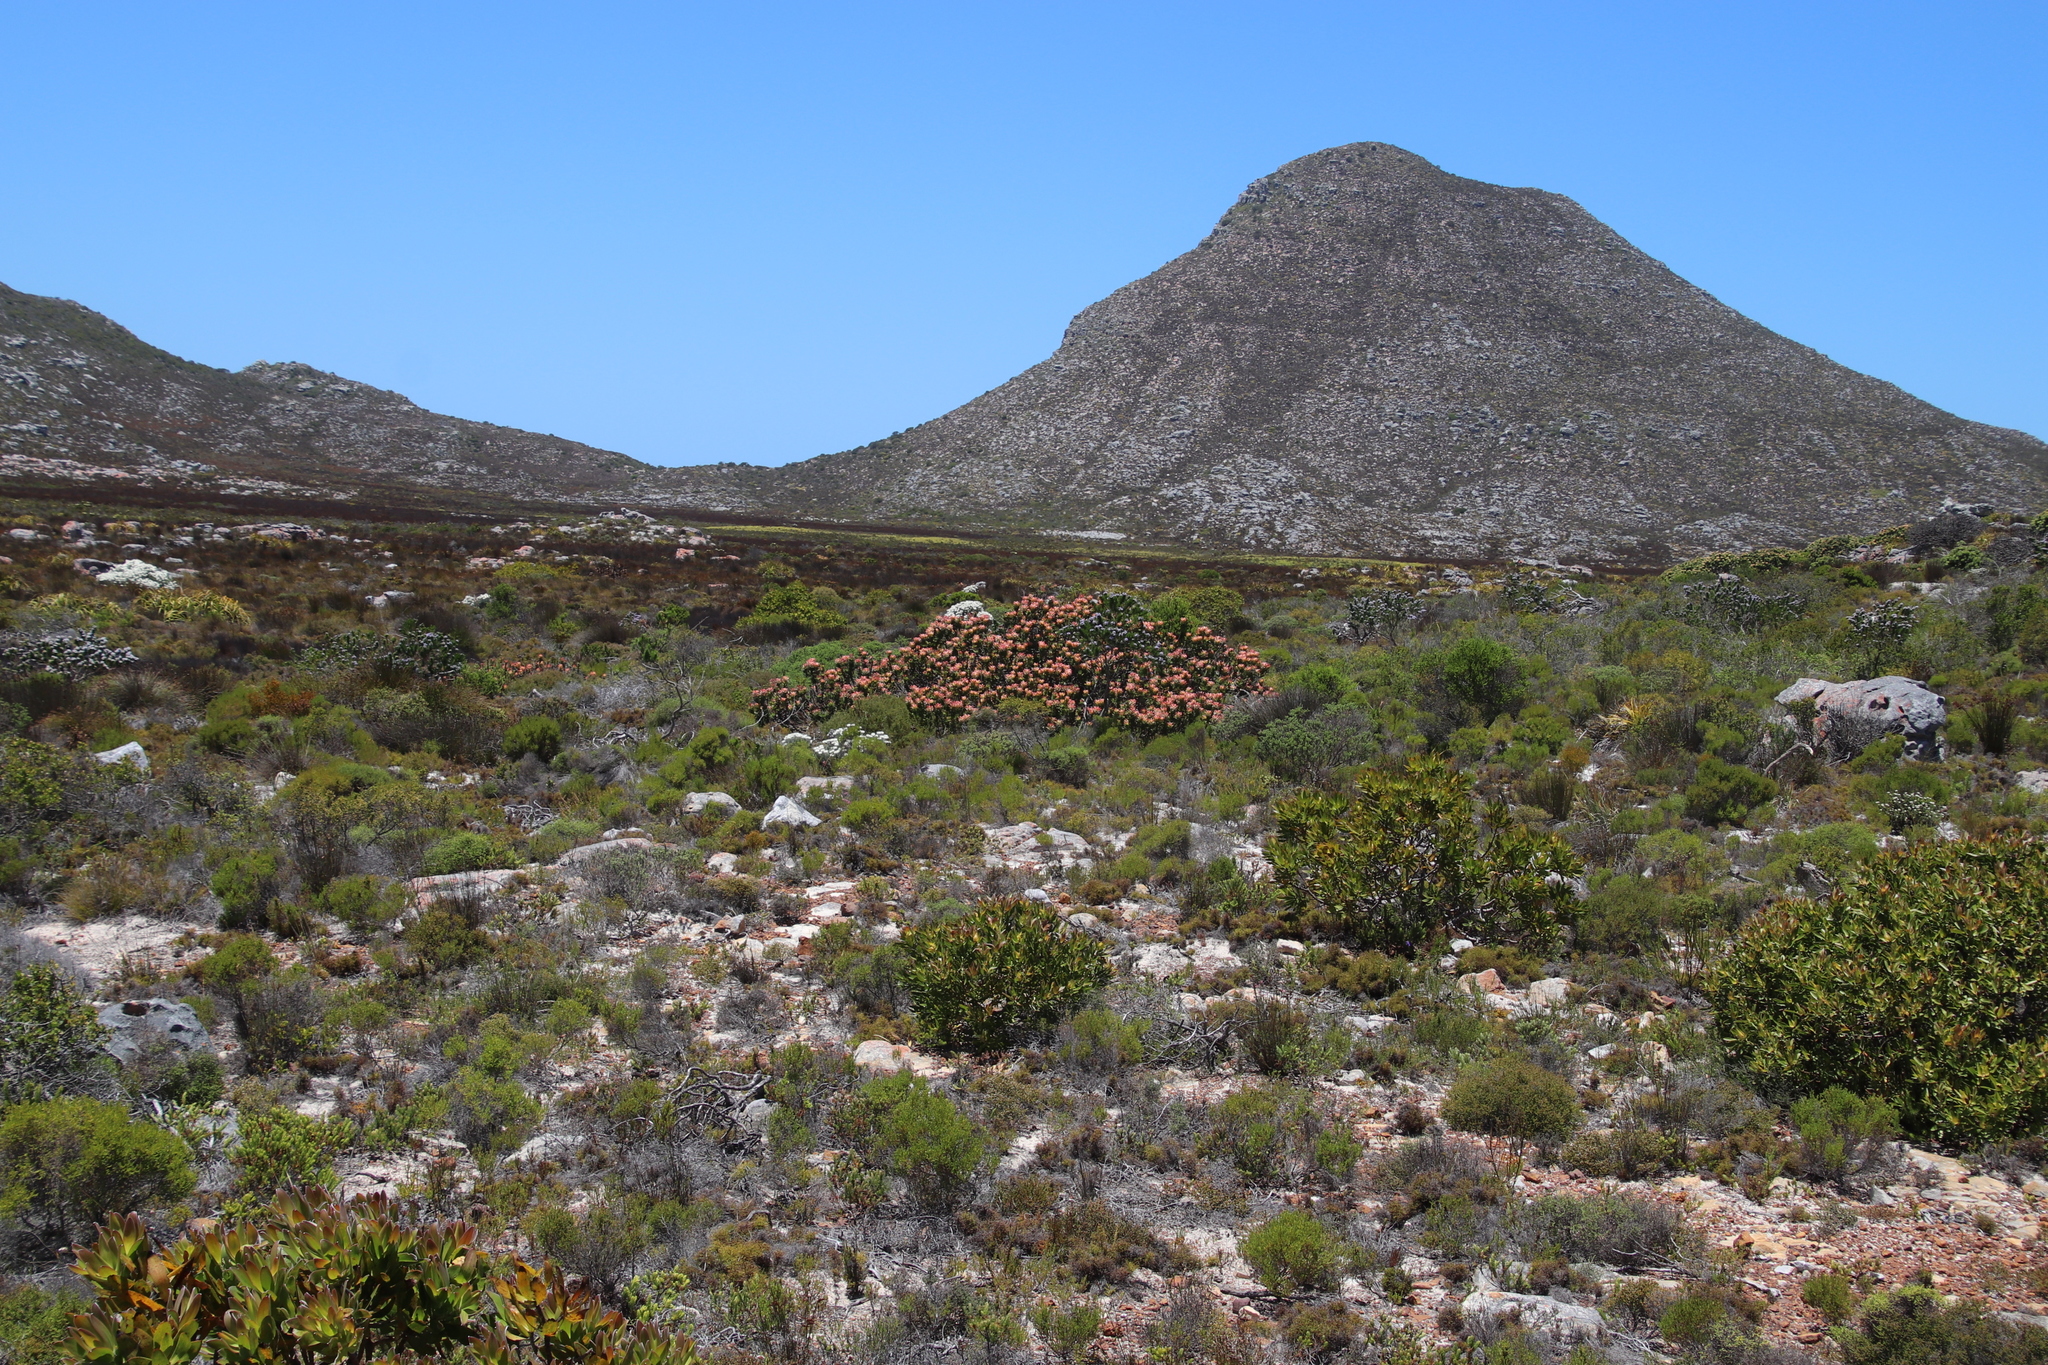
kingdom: Plantae
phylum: Tracheophyta
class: Magnoliopsida
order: Proteales
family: Proteaceae
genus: Mimetes
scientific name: Mimetes
